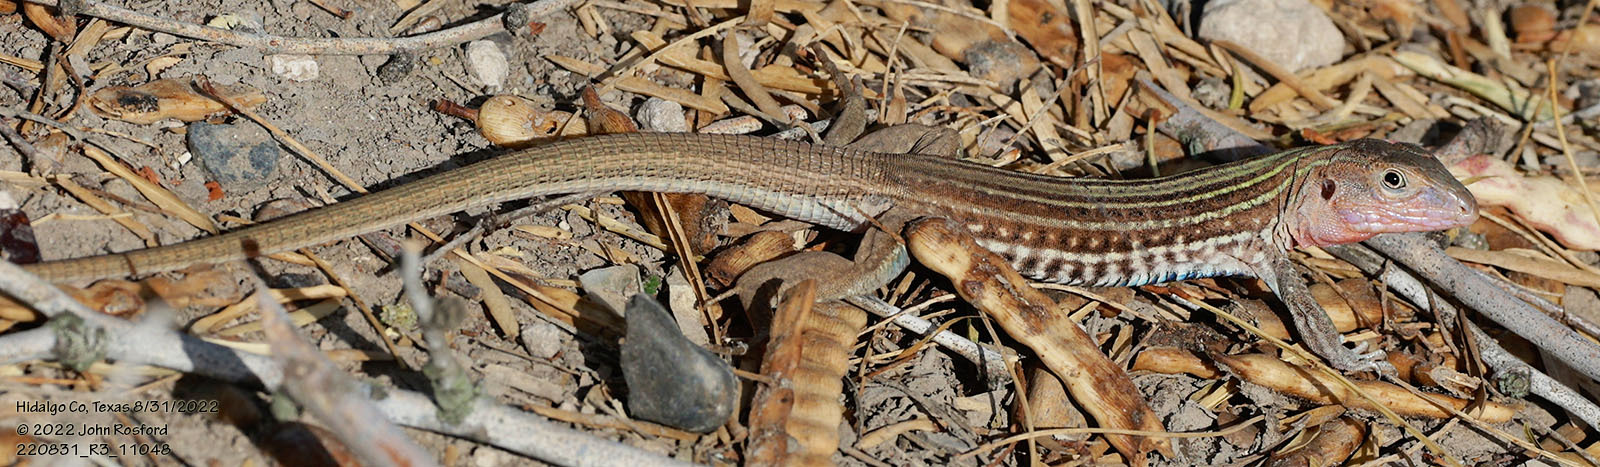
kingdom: Animalia
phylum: Chordata
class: Squamata
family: Teiidae
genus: Aspidoscelis
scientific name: Aspidoscelis gularis
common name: Eastern spotted whiptail
